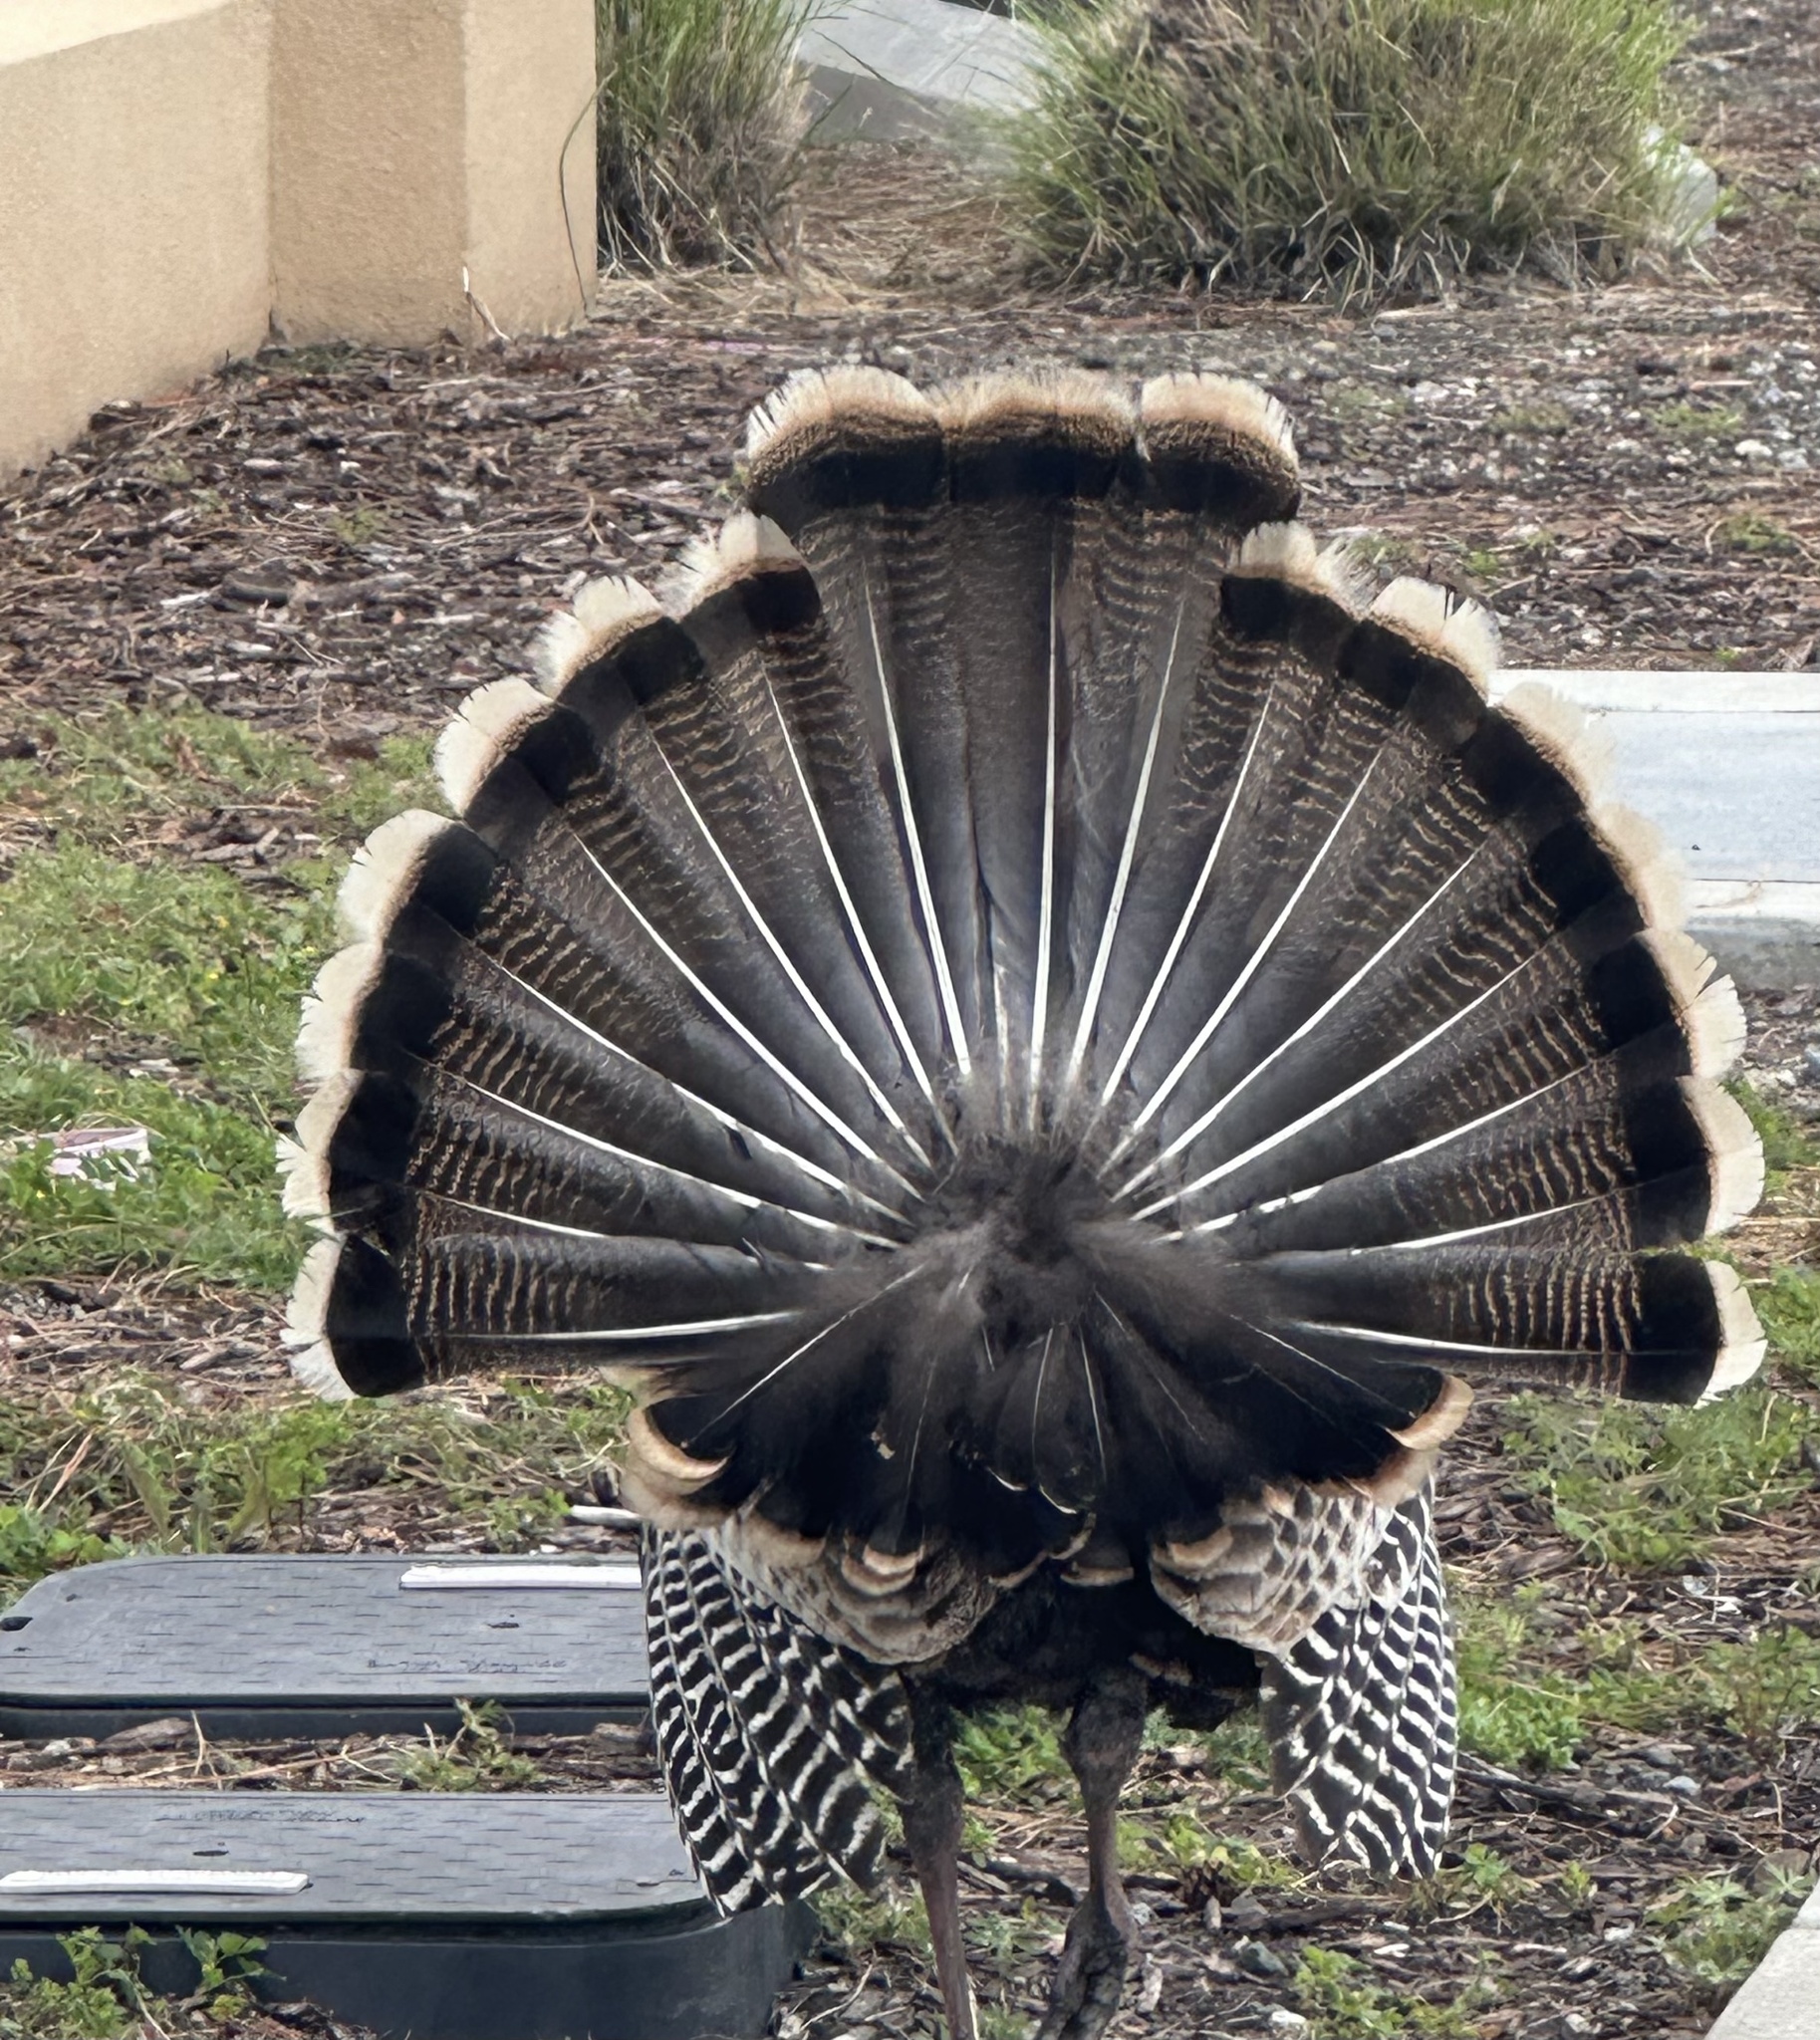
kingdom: Animalia
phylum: Chordata
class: Aves
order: Galliformes
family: Phasianidae
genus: Meleagris
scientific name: Meleagris gallopavo
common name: Wild turkey
